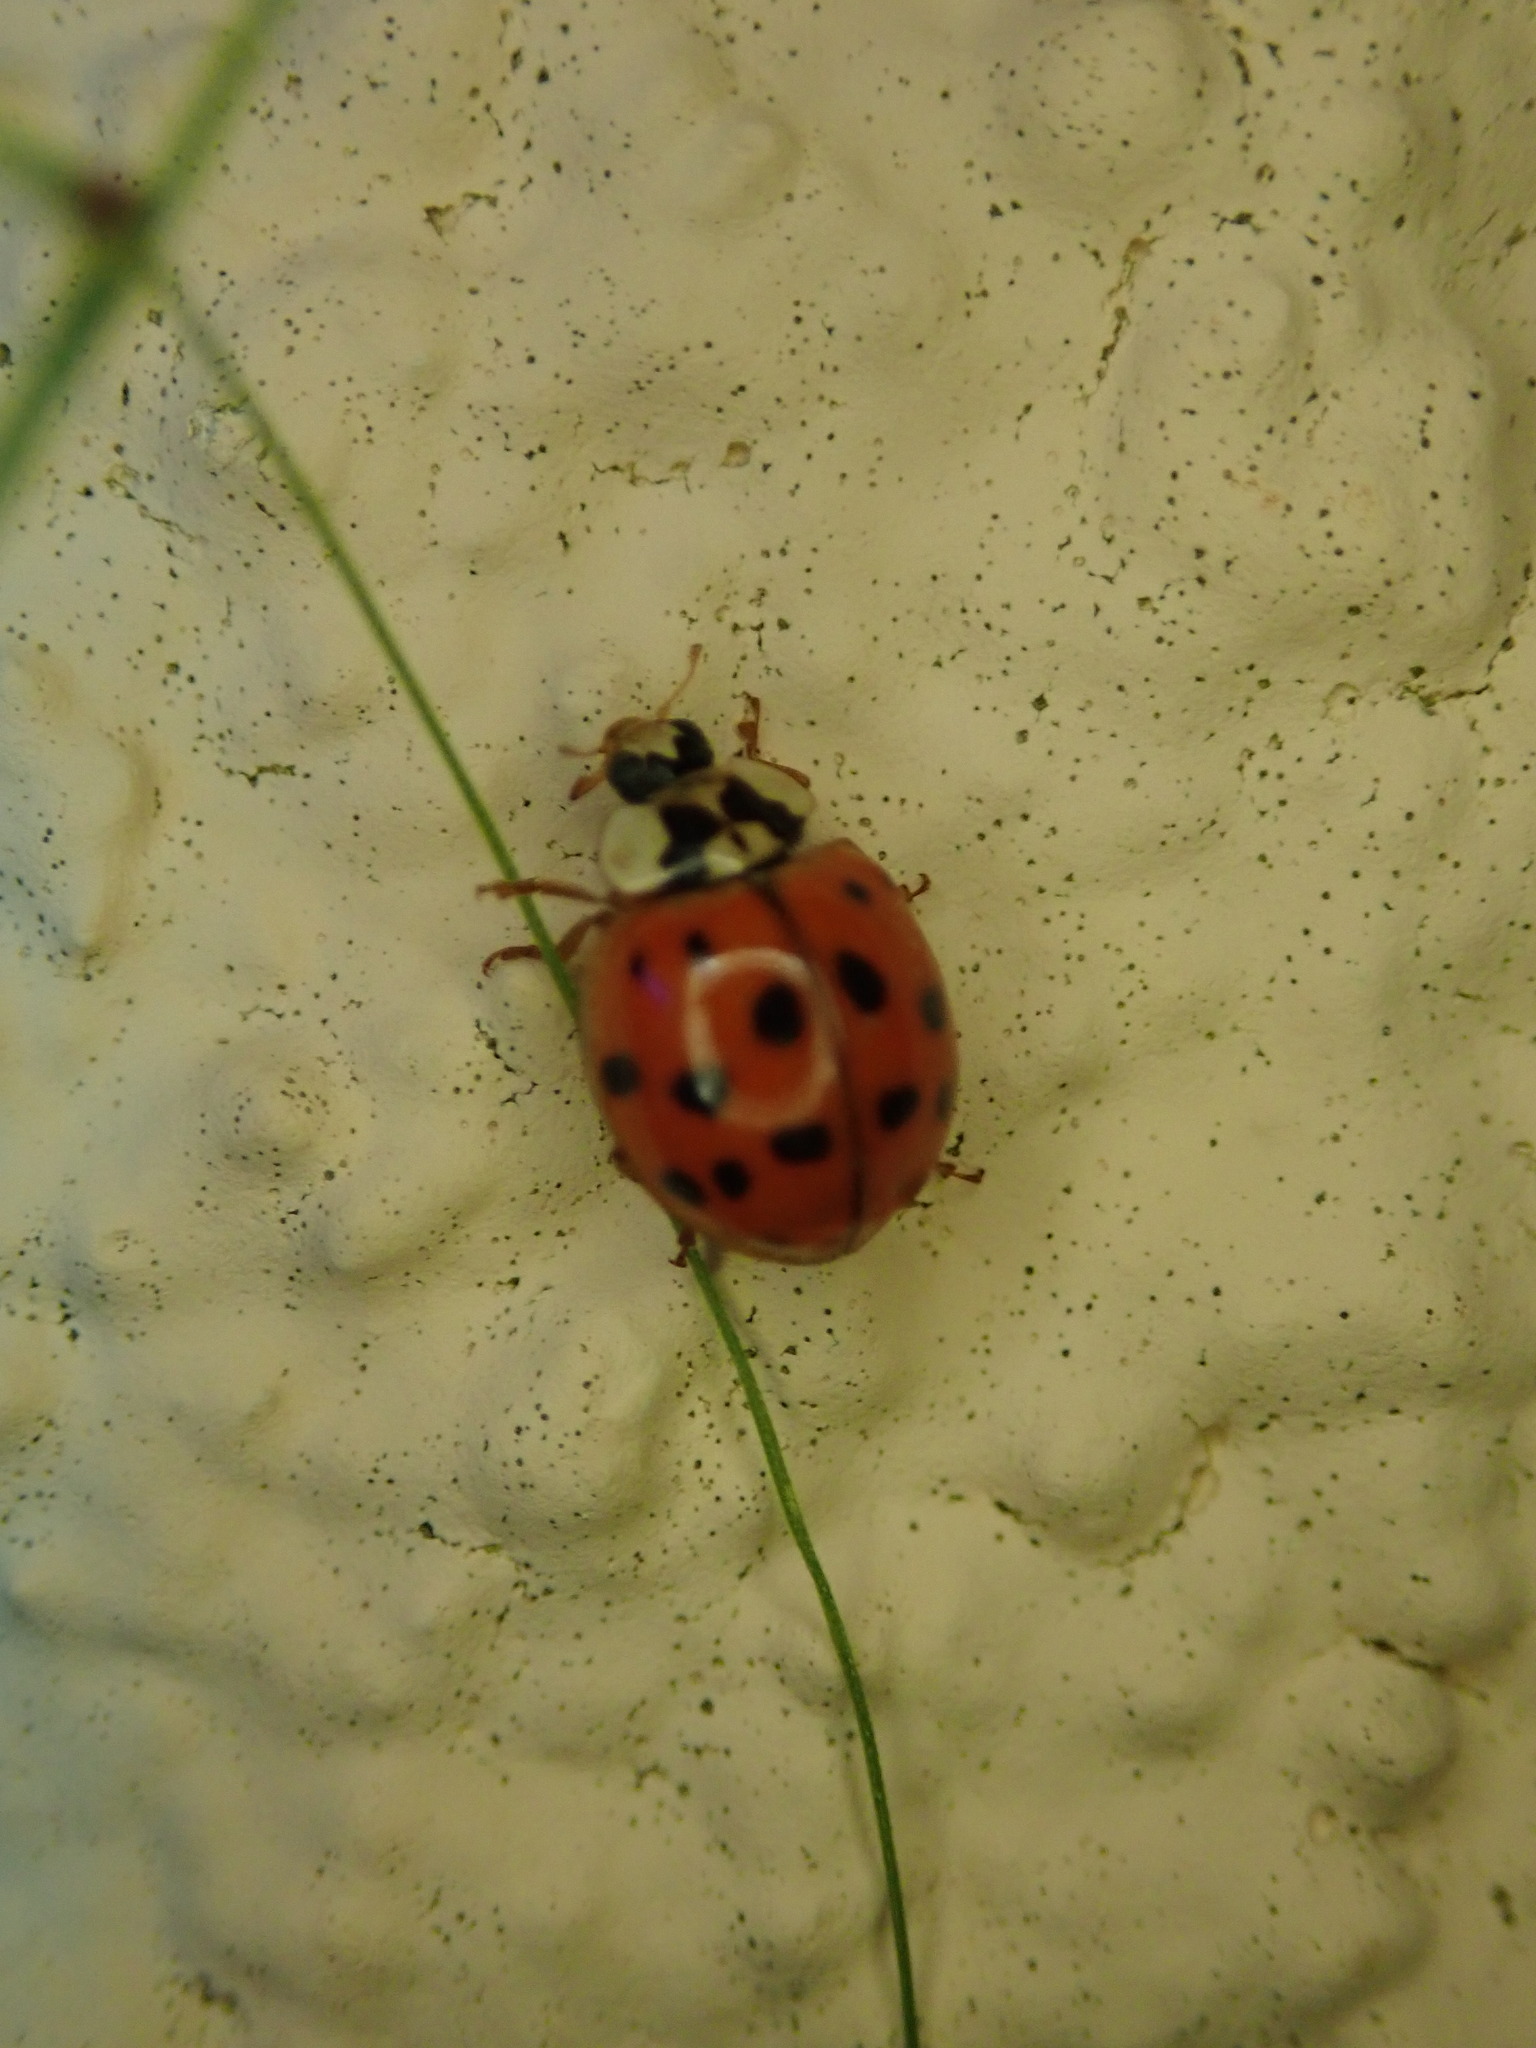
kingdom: Animalia
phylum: Arthropoda
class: Insecta
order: Coleoptera
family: Coccinellidae
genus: Harmonia
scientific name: Harmonia axyridis
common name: Harlequin ladybird
